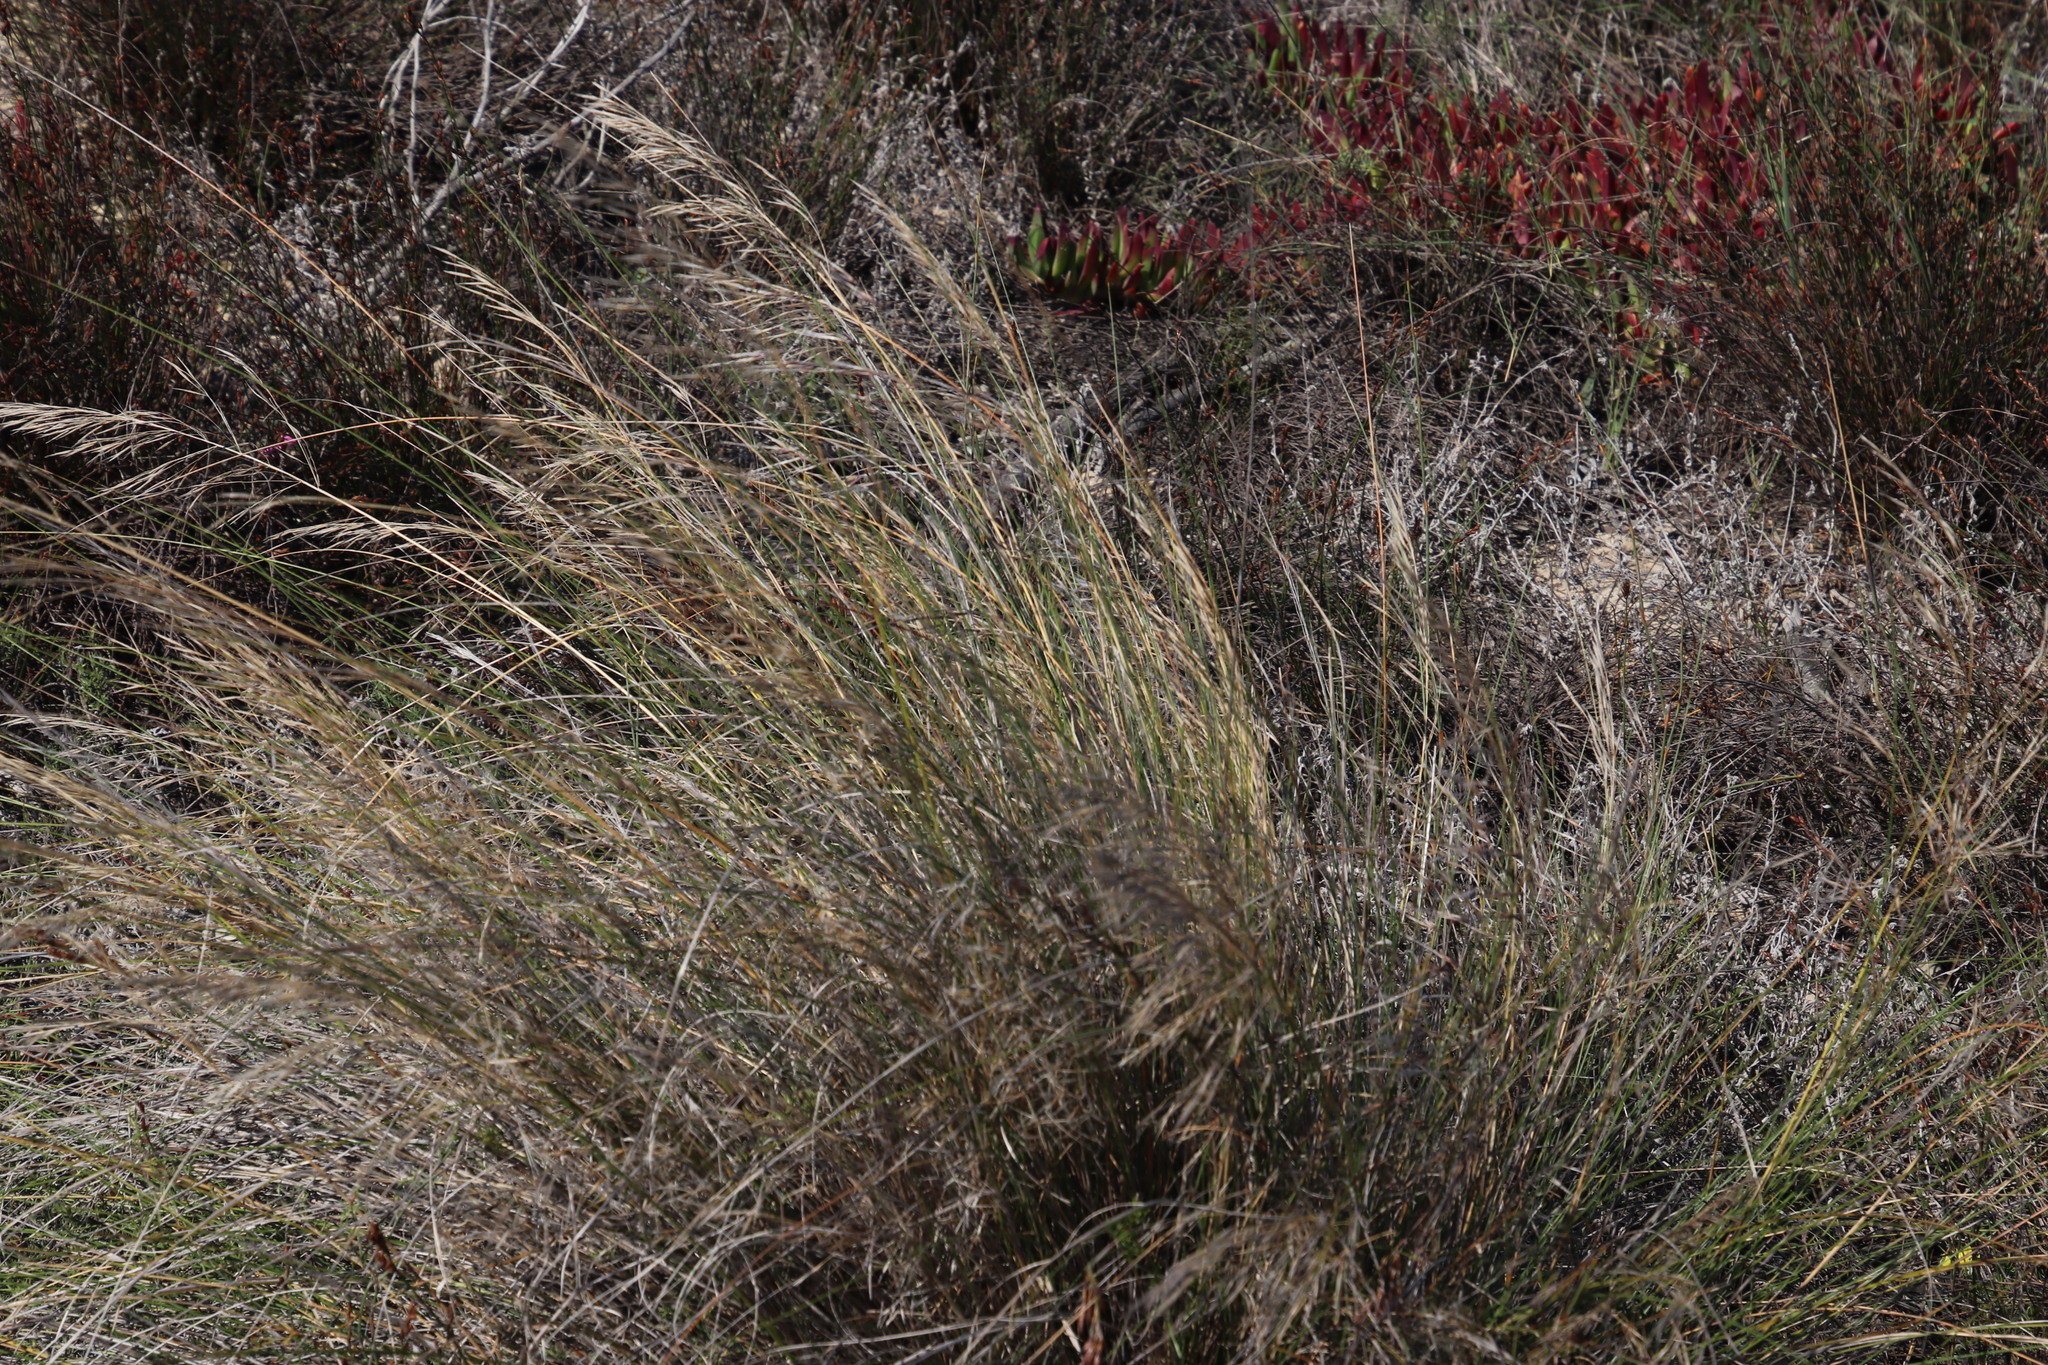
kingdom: Plantae
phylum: Tracheophyta
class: Liliopsida
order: Poales
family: Poaceae
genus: Stipagrostis
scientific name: Stipagrostis zeyheri
